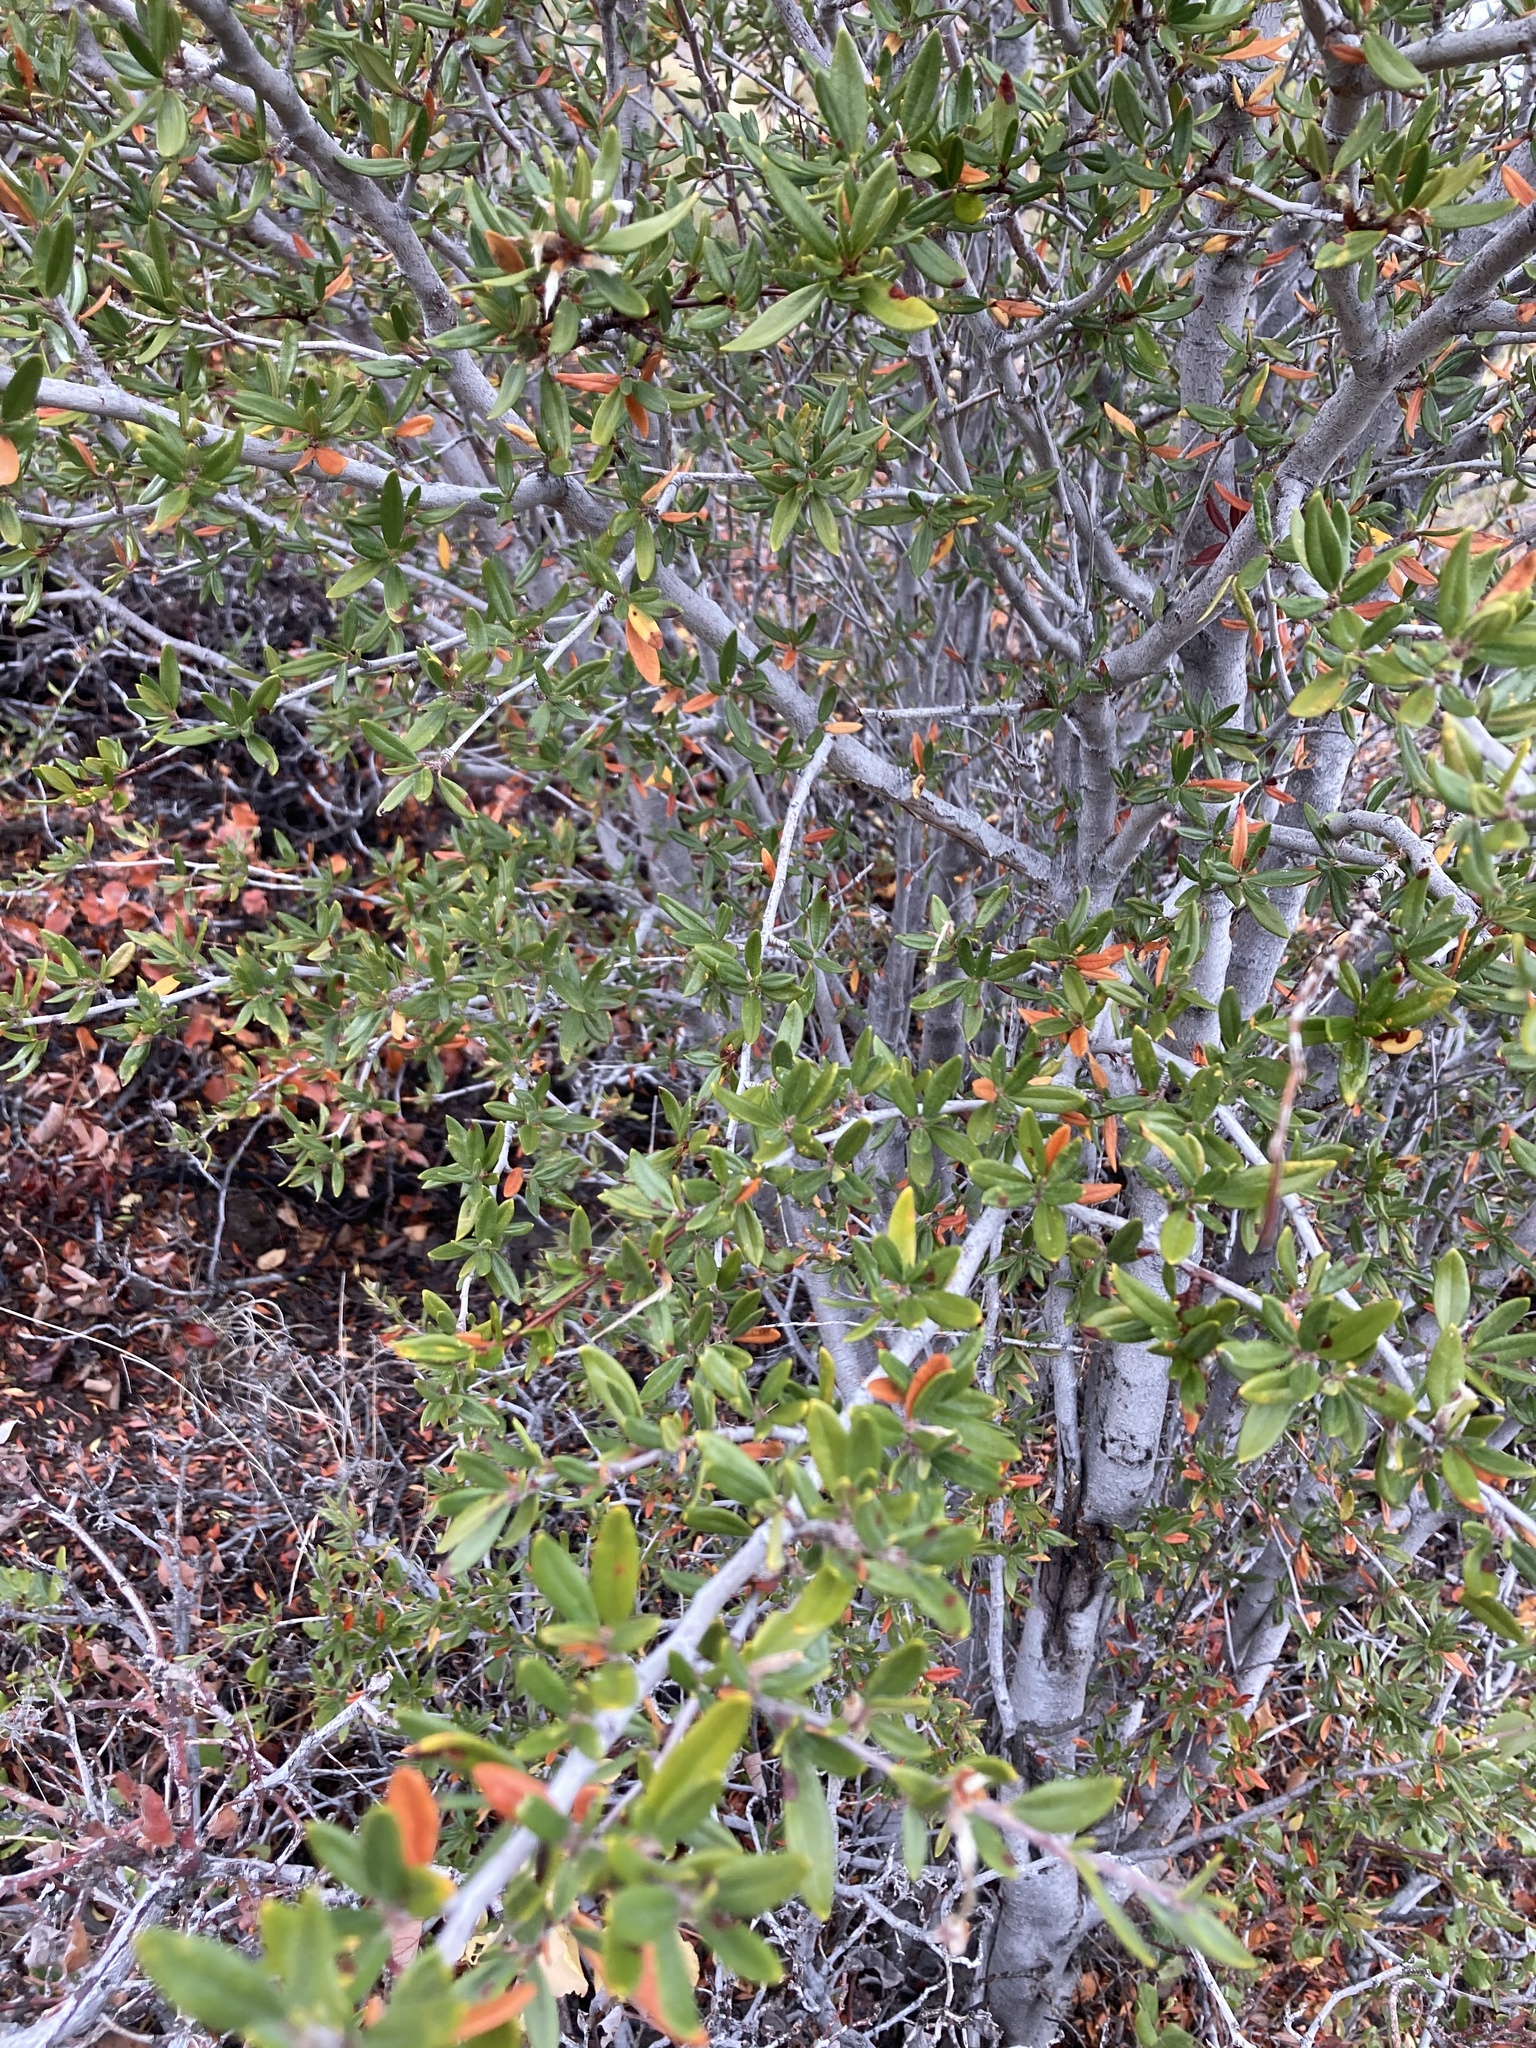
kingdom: Plantae
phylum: Tracheophyta
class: Magnoliopsida
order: Rosales
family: Rosaceae
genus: Cercocarpus
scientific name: Cercocarpus ledifolius
